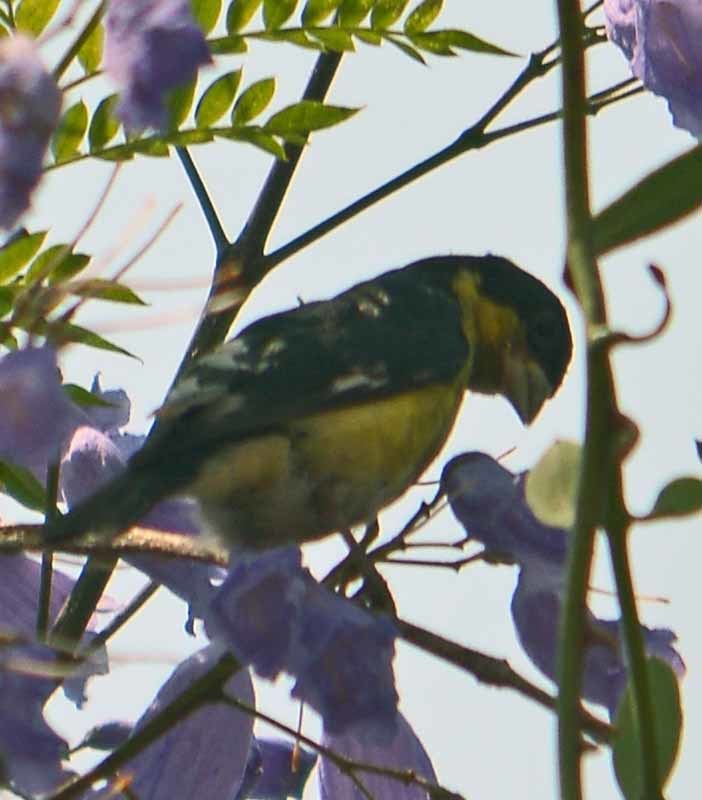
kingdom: Animalia
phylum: Chordata
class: Aves
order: Passeriformes
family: Fringillidae
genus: Spinus
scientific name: Spinus psaltria
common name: Lesser goldfinch
